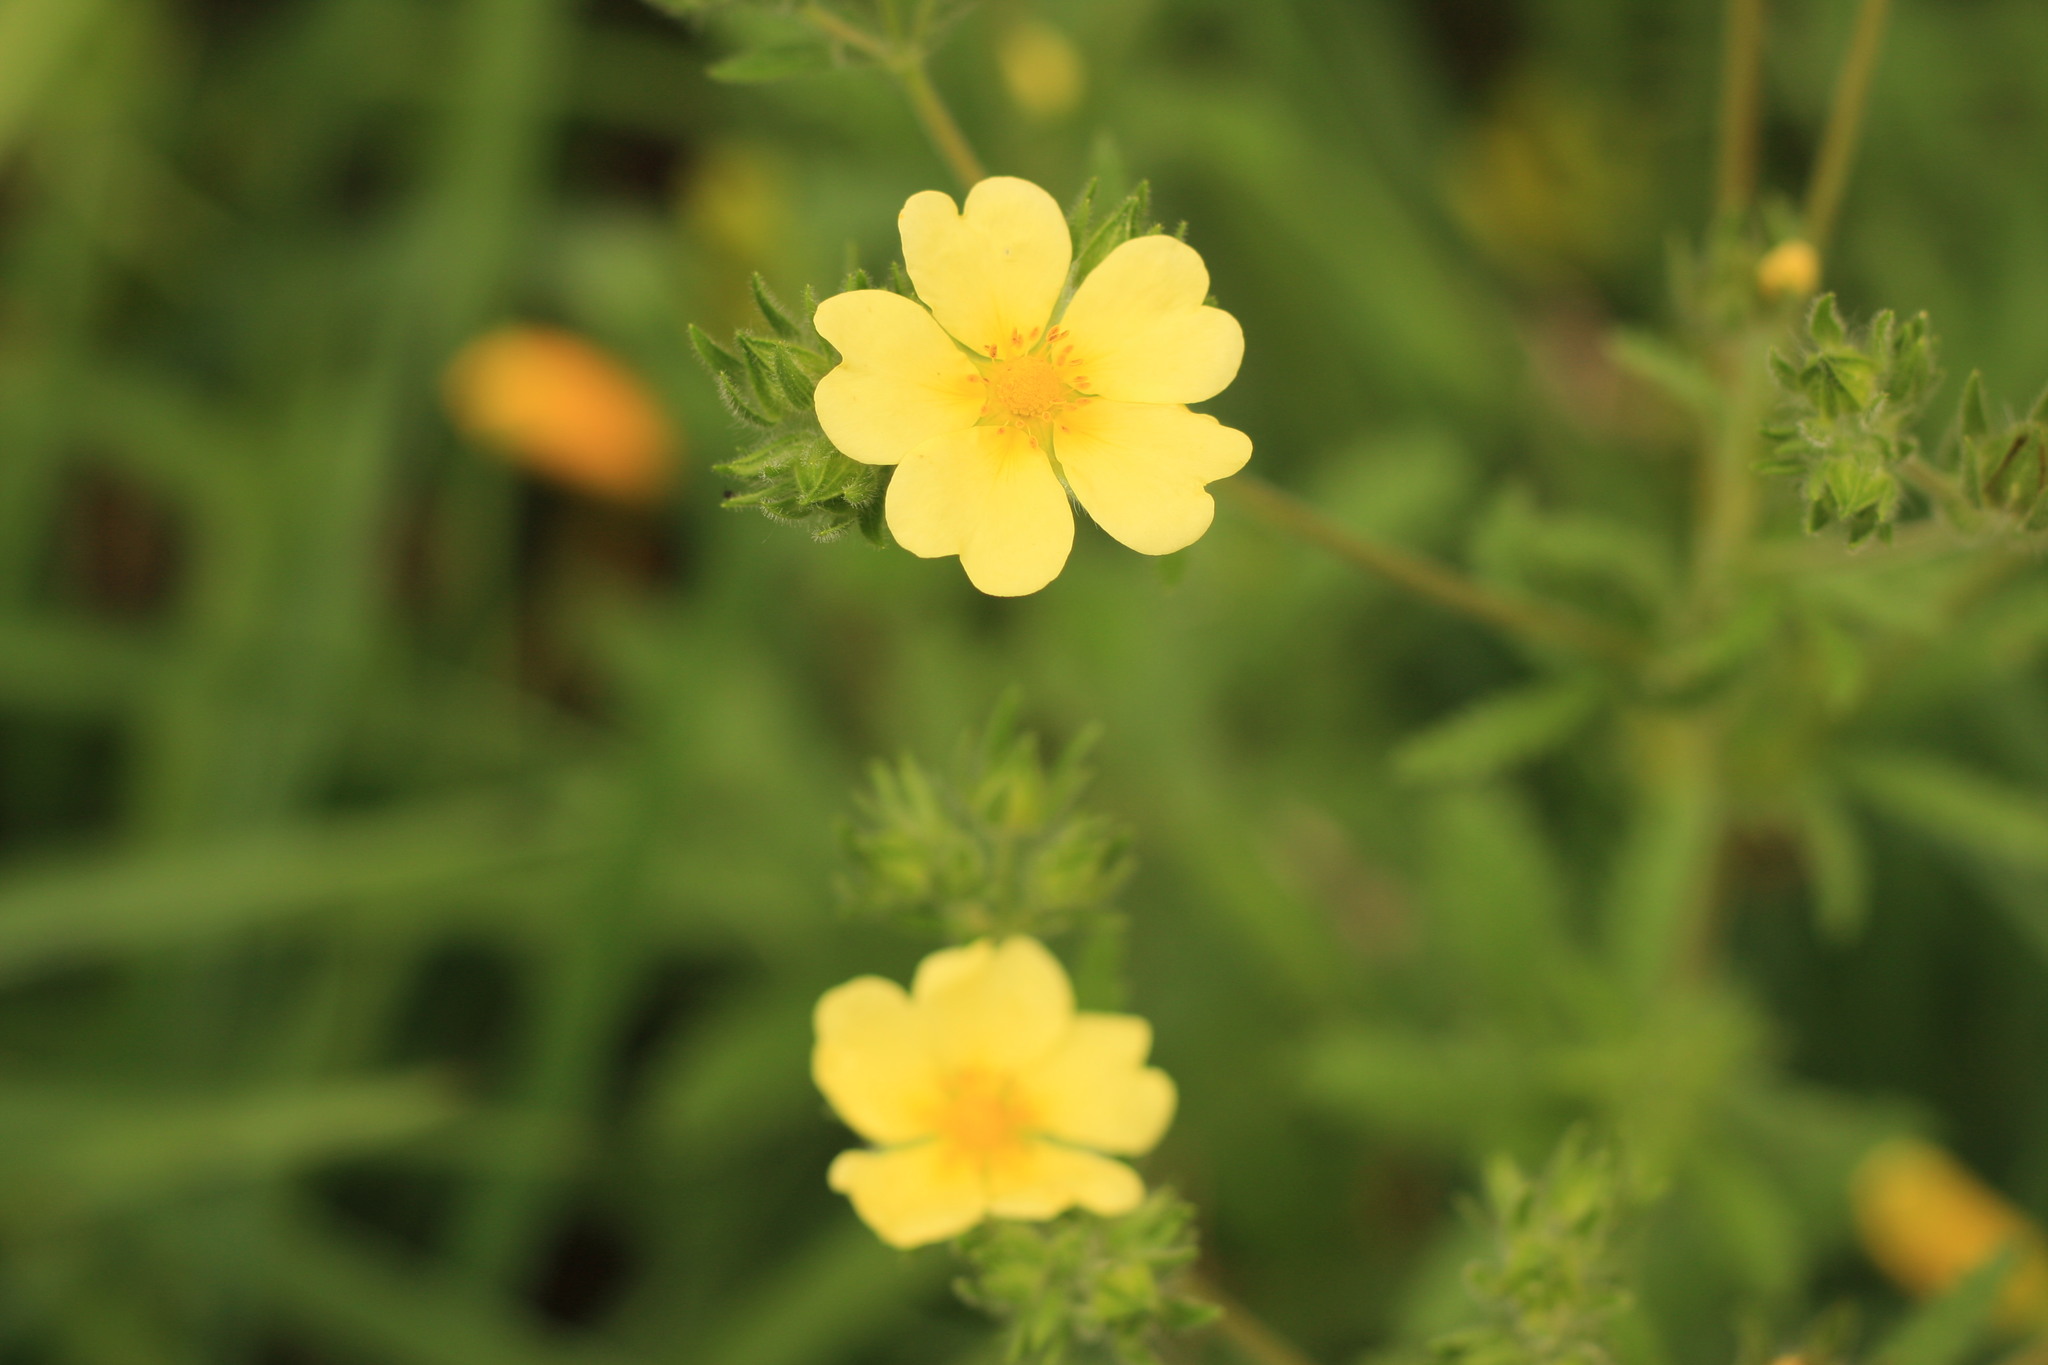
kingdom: Plantae
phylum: Tracheophyta
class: Magnoliopsida
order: Rosales
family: Rosaceae
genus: Potentilla
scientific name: Potentilla recta
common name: Sulphur cinquefoil
